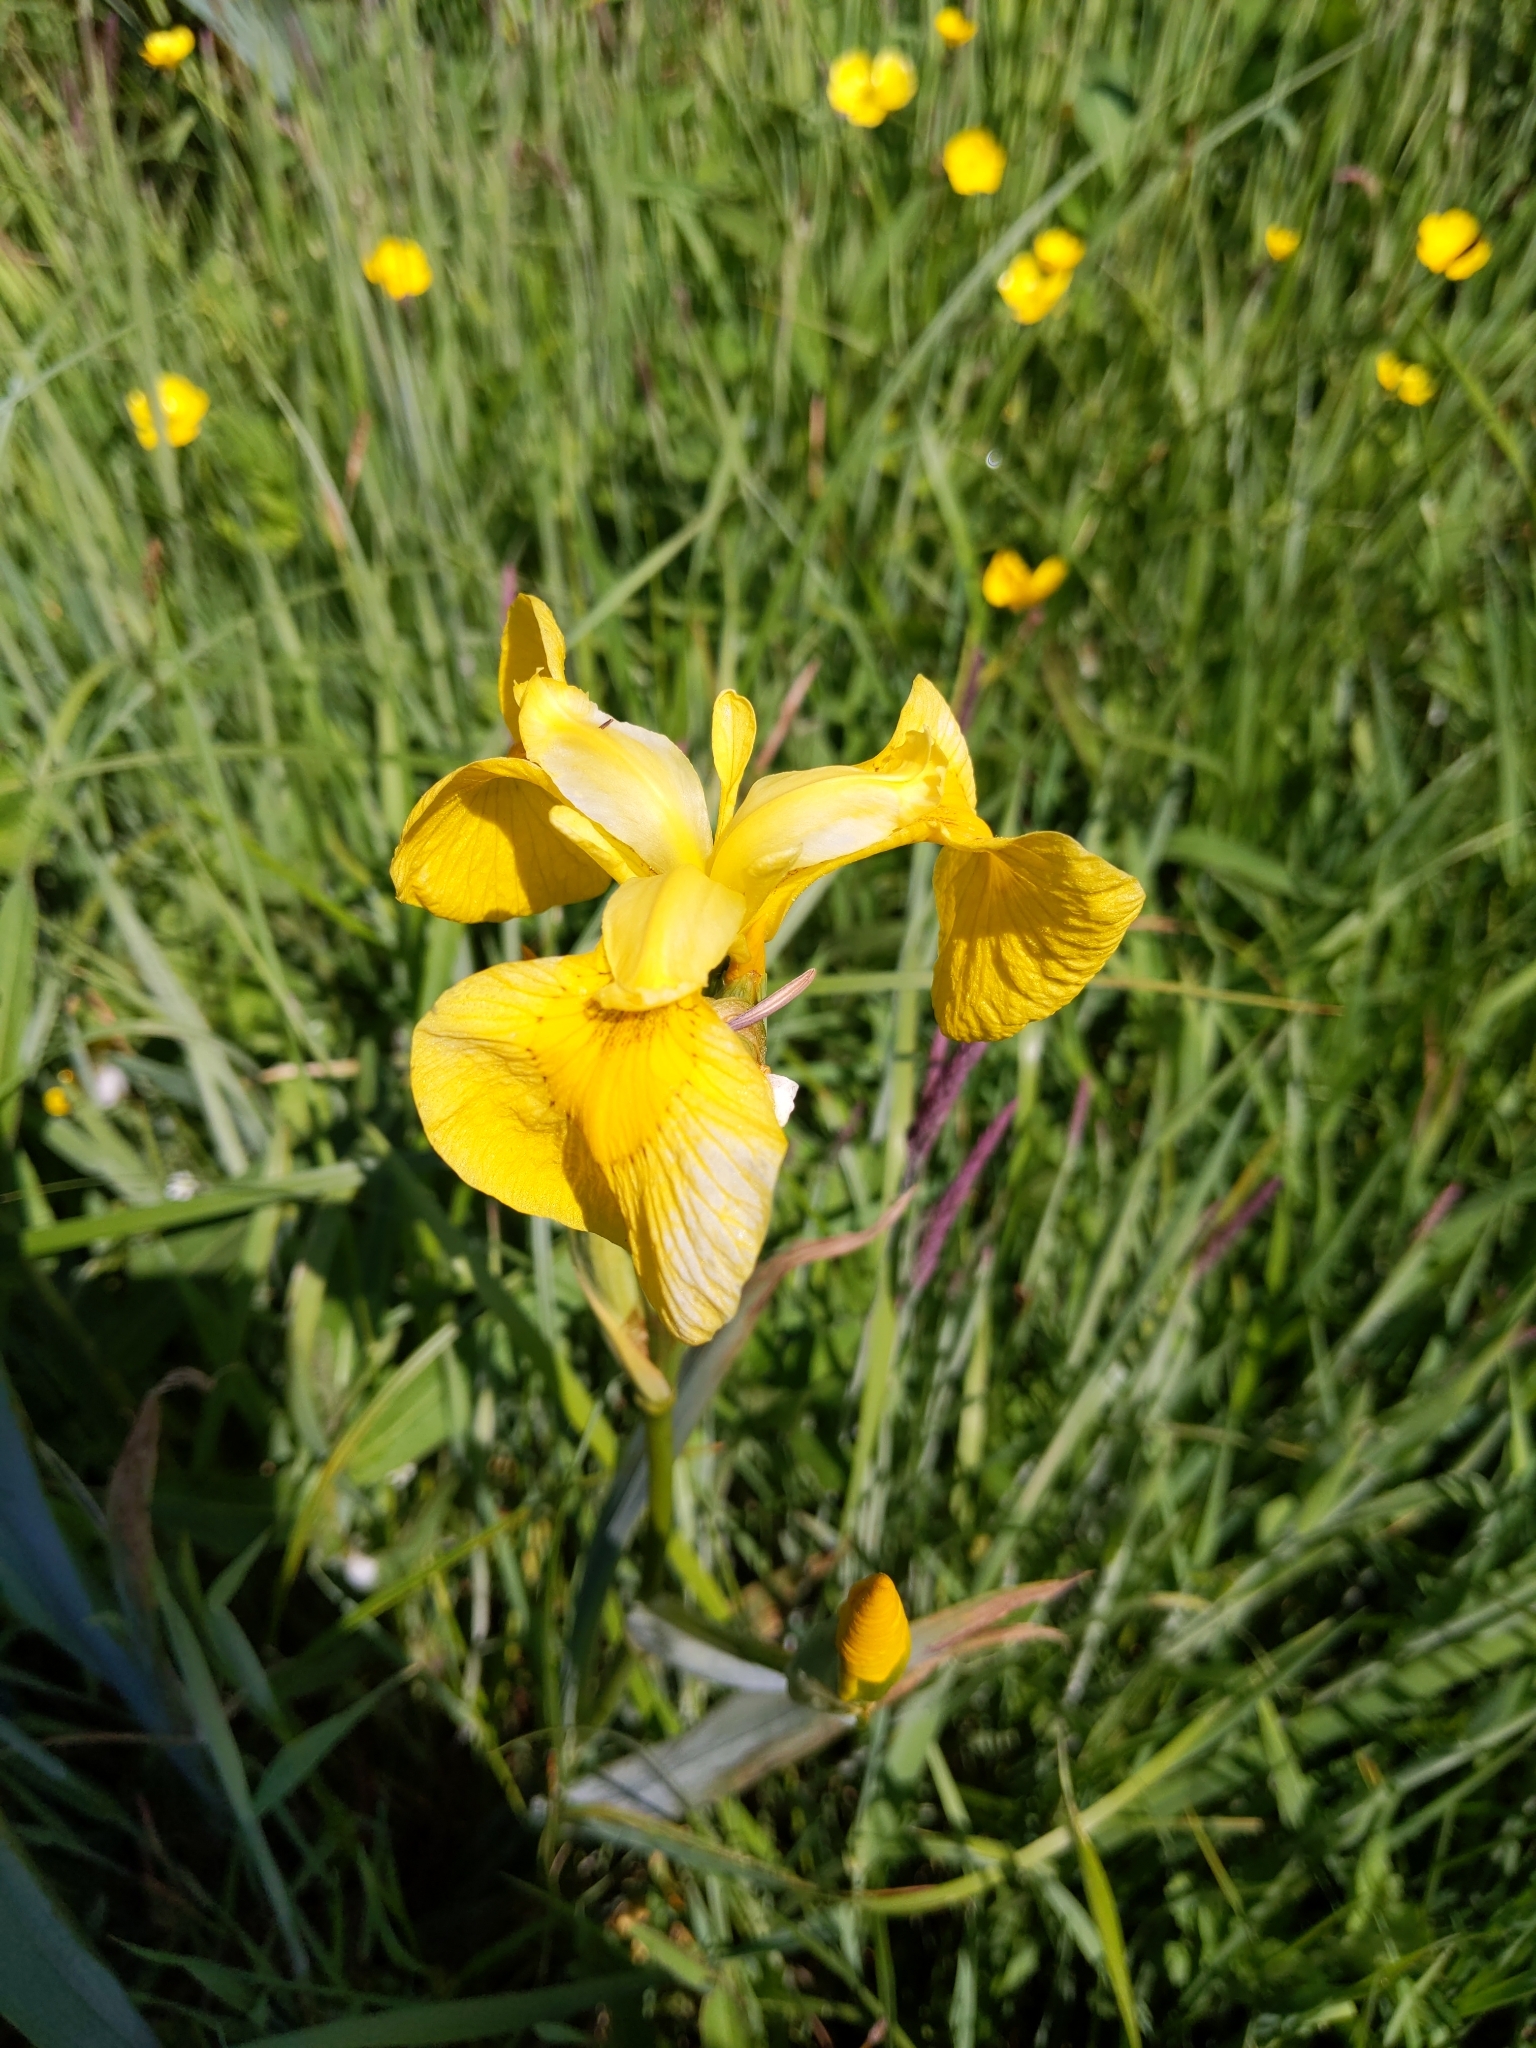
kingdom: Plantae
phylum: Tracheophyta
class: Liliopsida
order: Asparagales
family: Iridaceae
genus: Iris
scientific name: Iris pseudacorus
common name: Yellow flag
